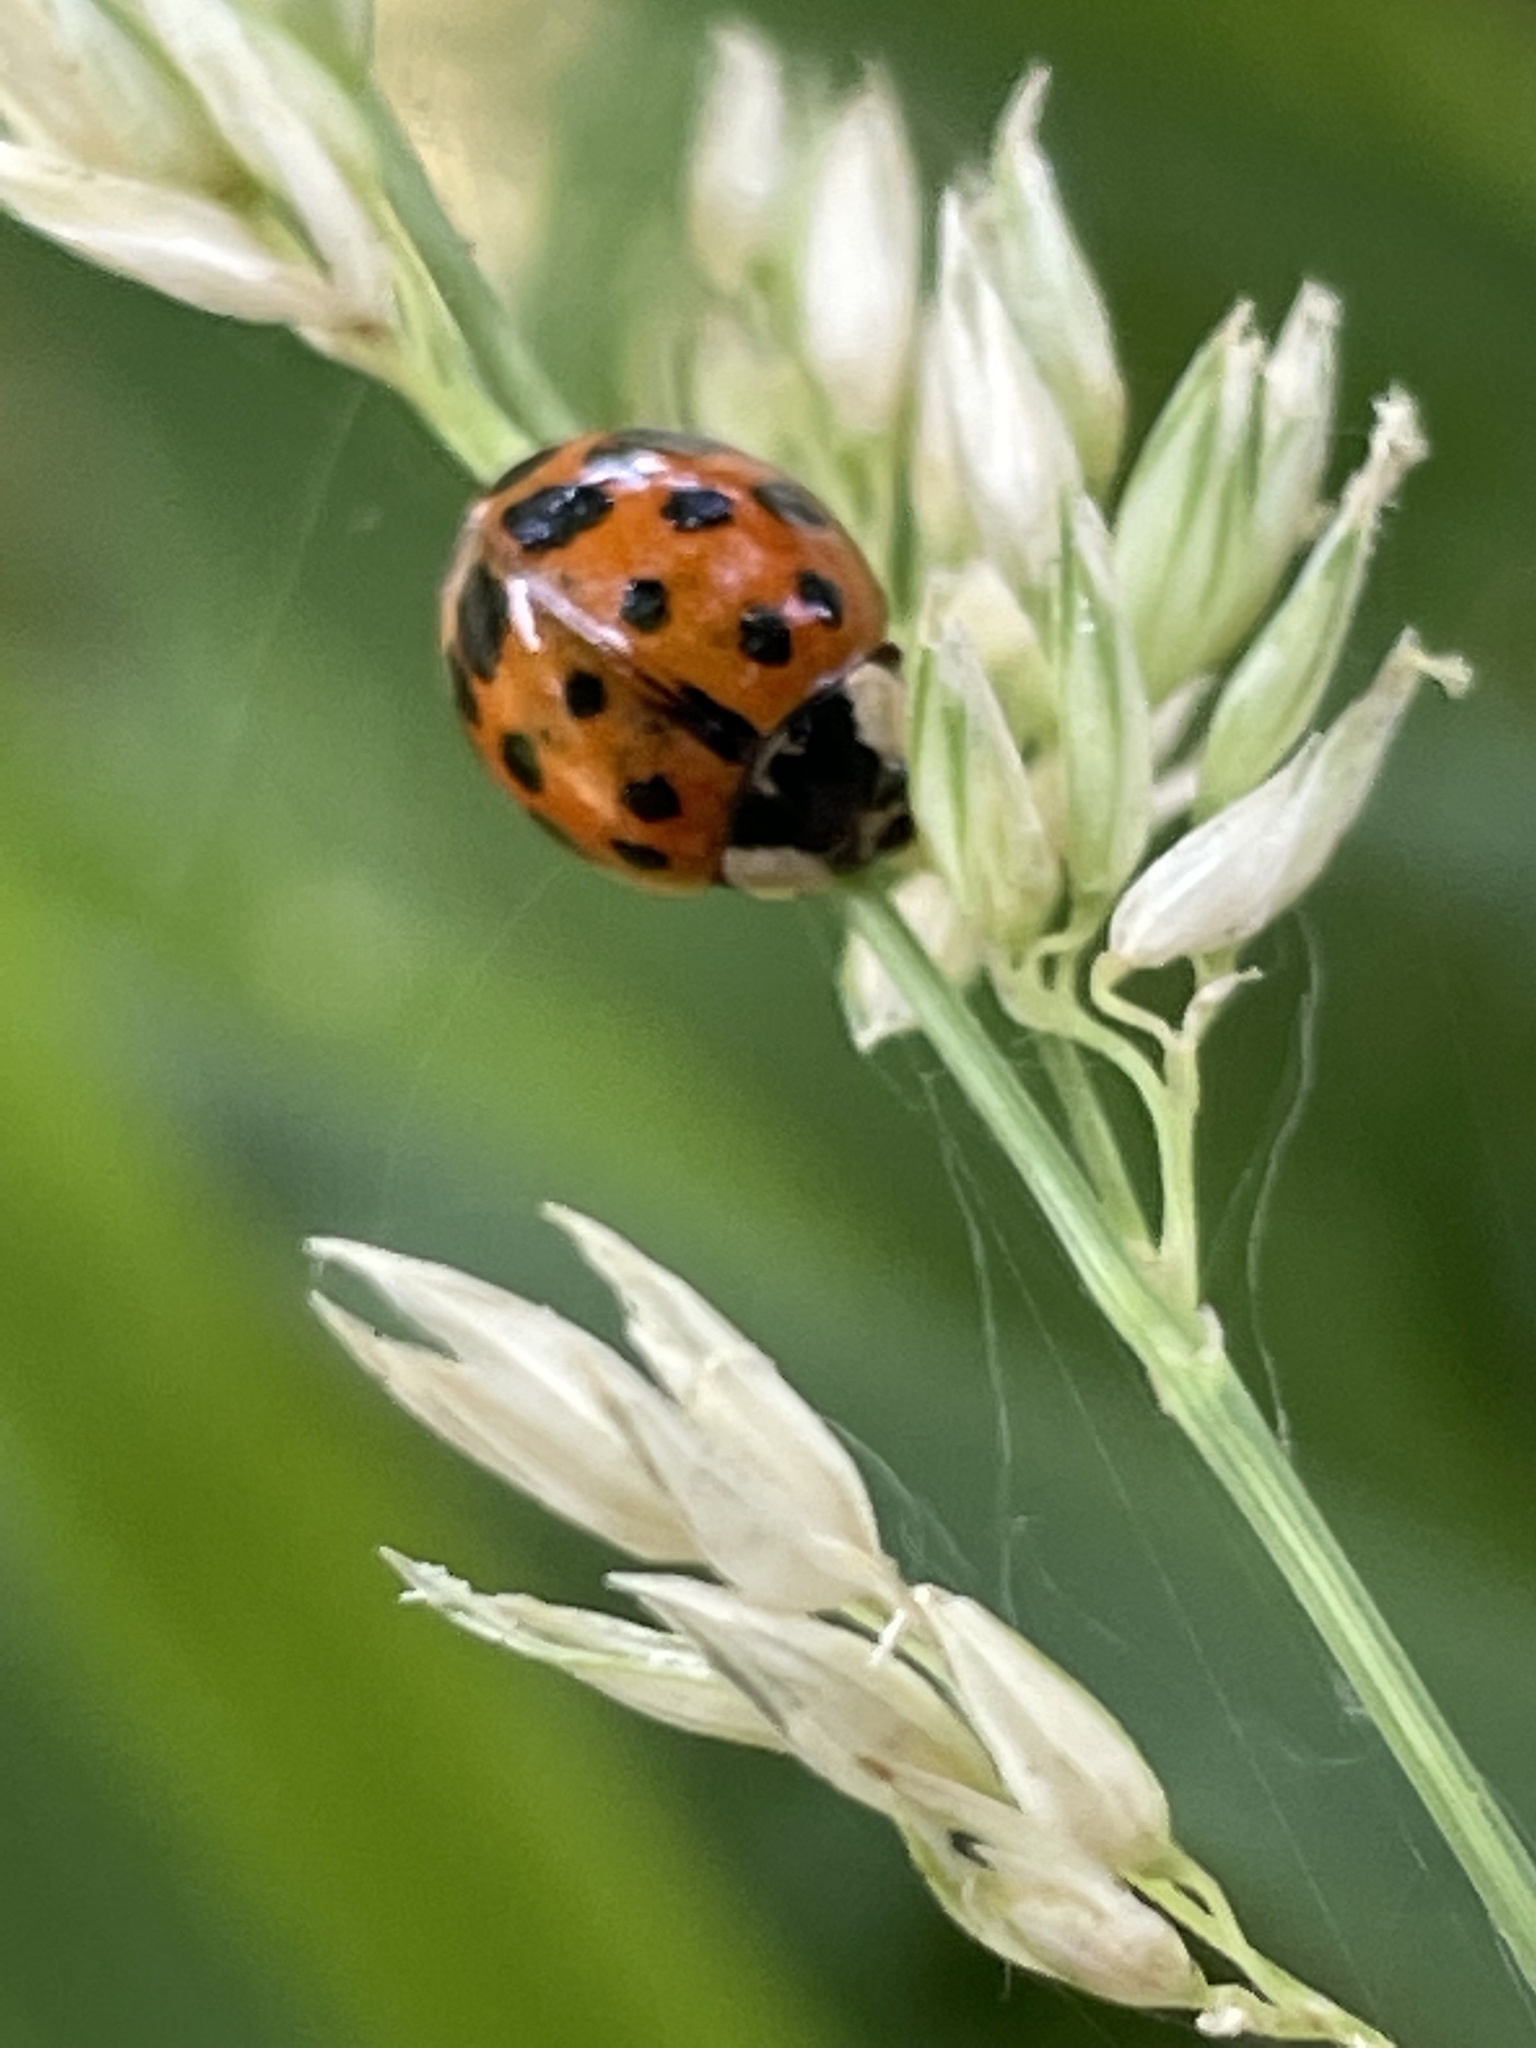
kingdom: Animalia
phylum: Arthropoda
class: Insecta
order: Coleoptera
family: Coccinellidae
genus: Harmonia
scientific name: Harmonia axyridis
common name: Harlequin ladybird
